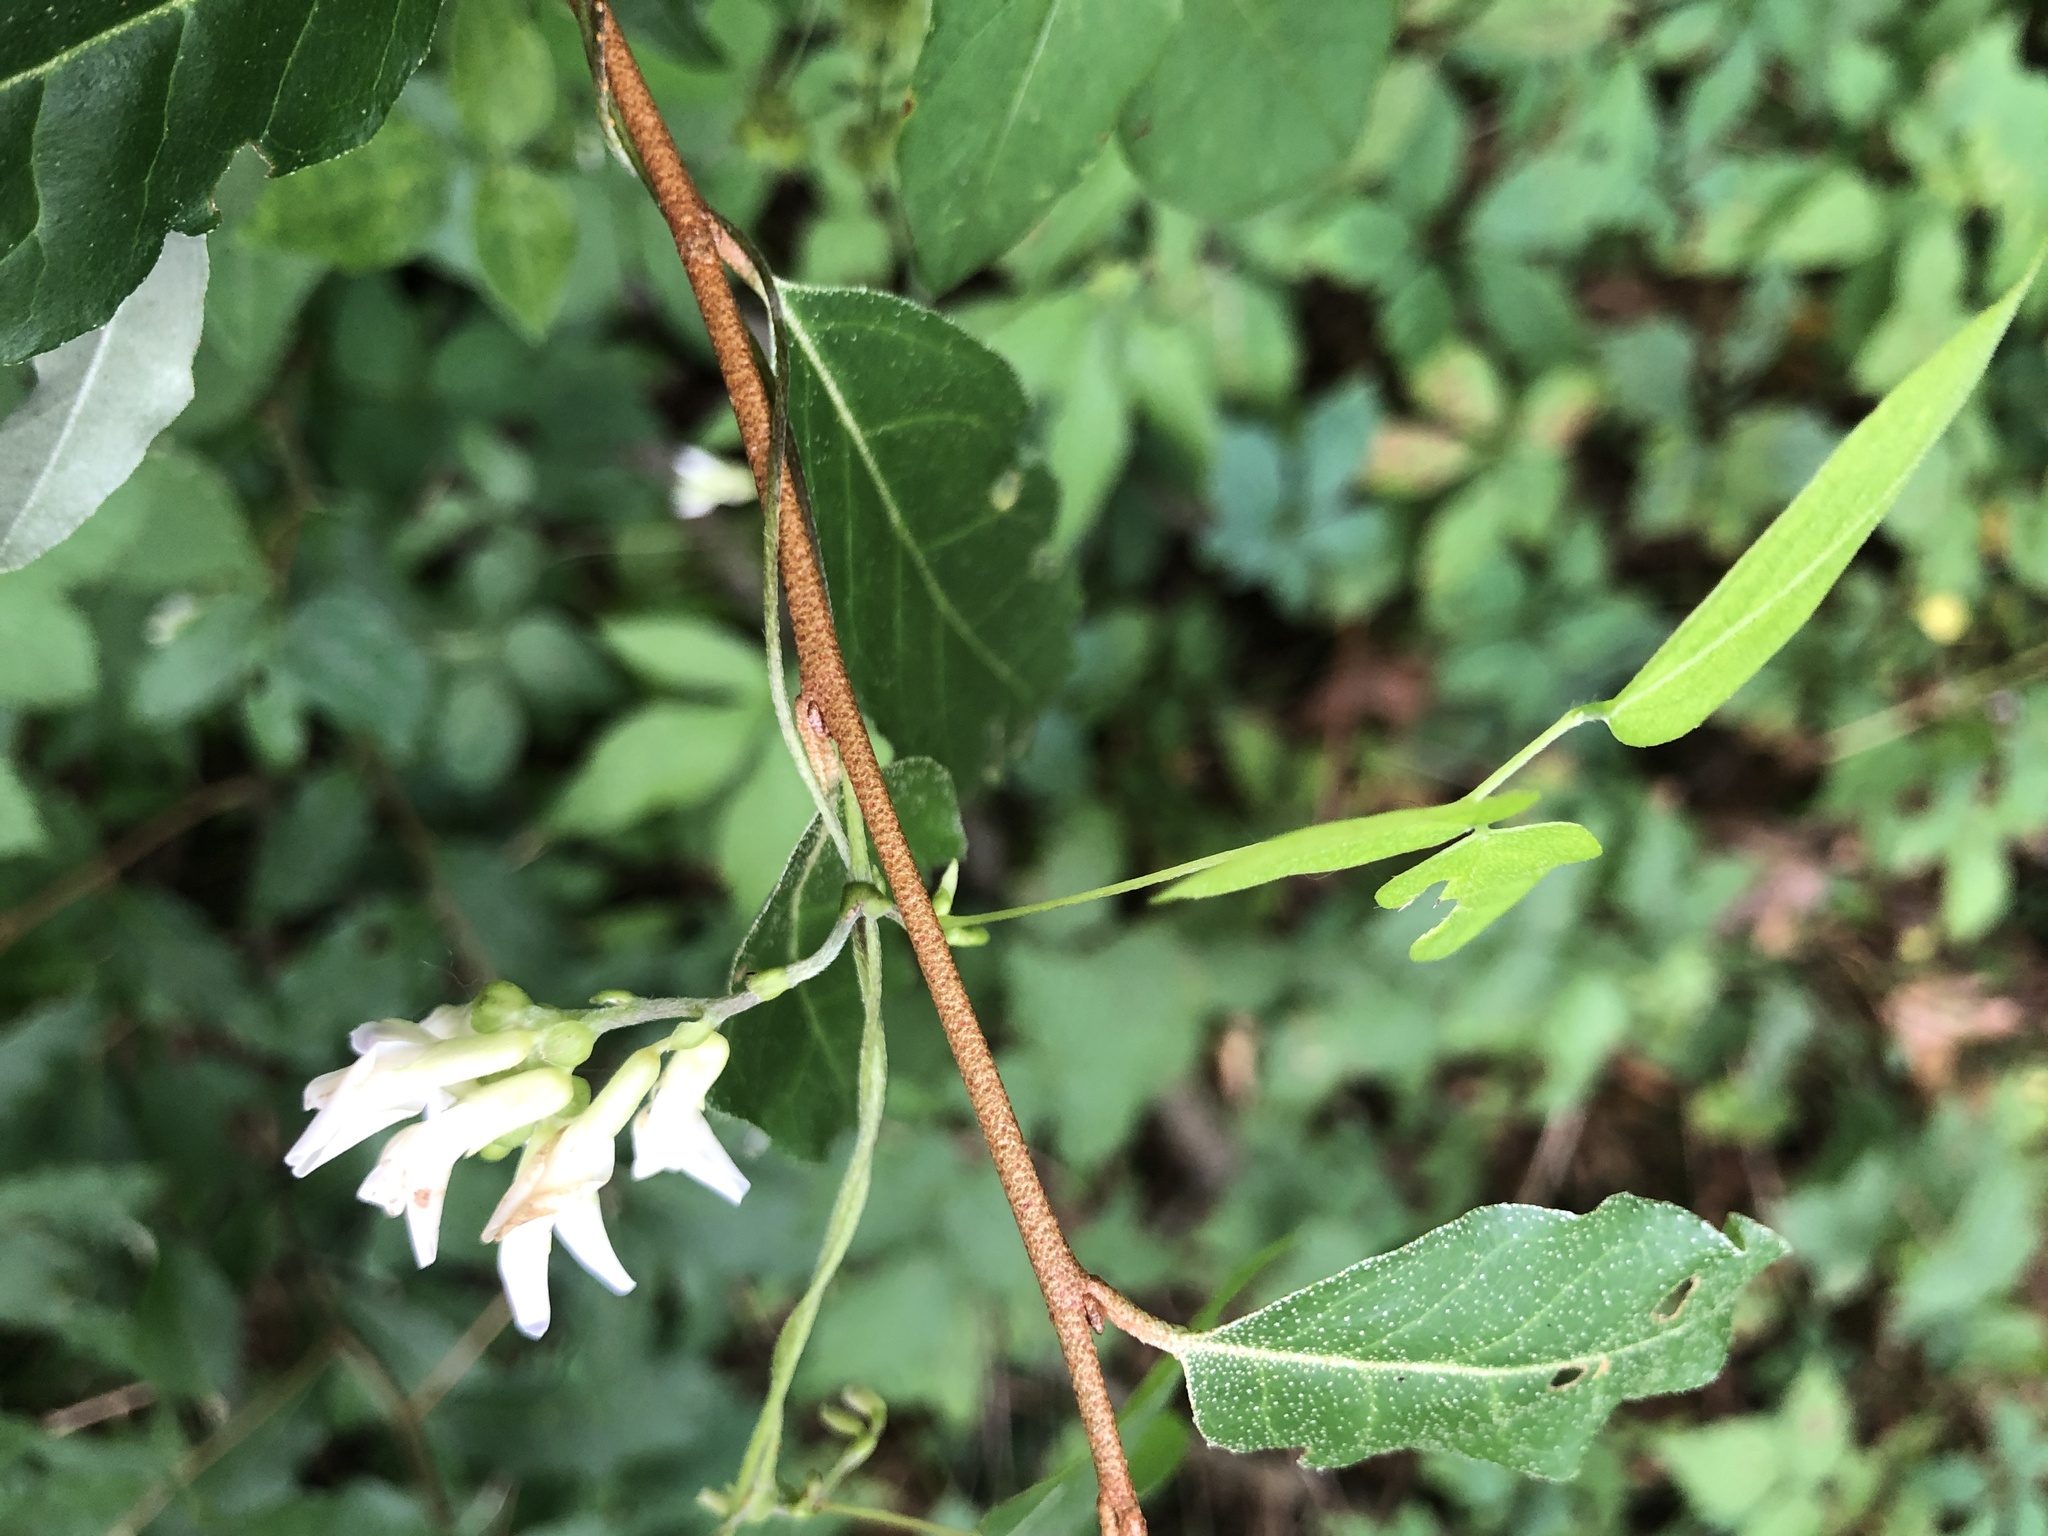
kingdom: Plantae
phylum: Tracheophyta
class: Magnoliopsida
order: Fabales
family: Fabaceae
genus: Amphicarpaea
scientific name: Amphicarpaea bracteata
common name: American hog peanut
